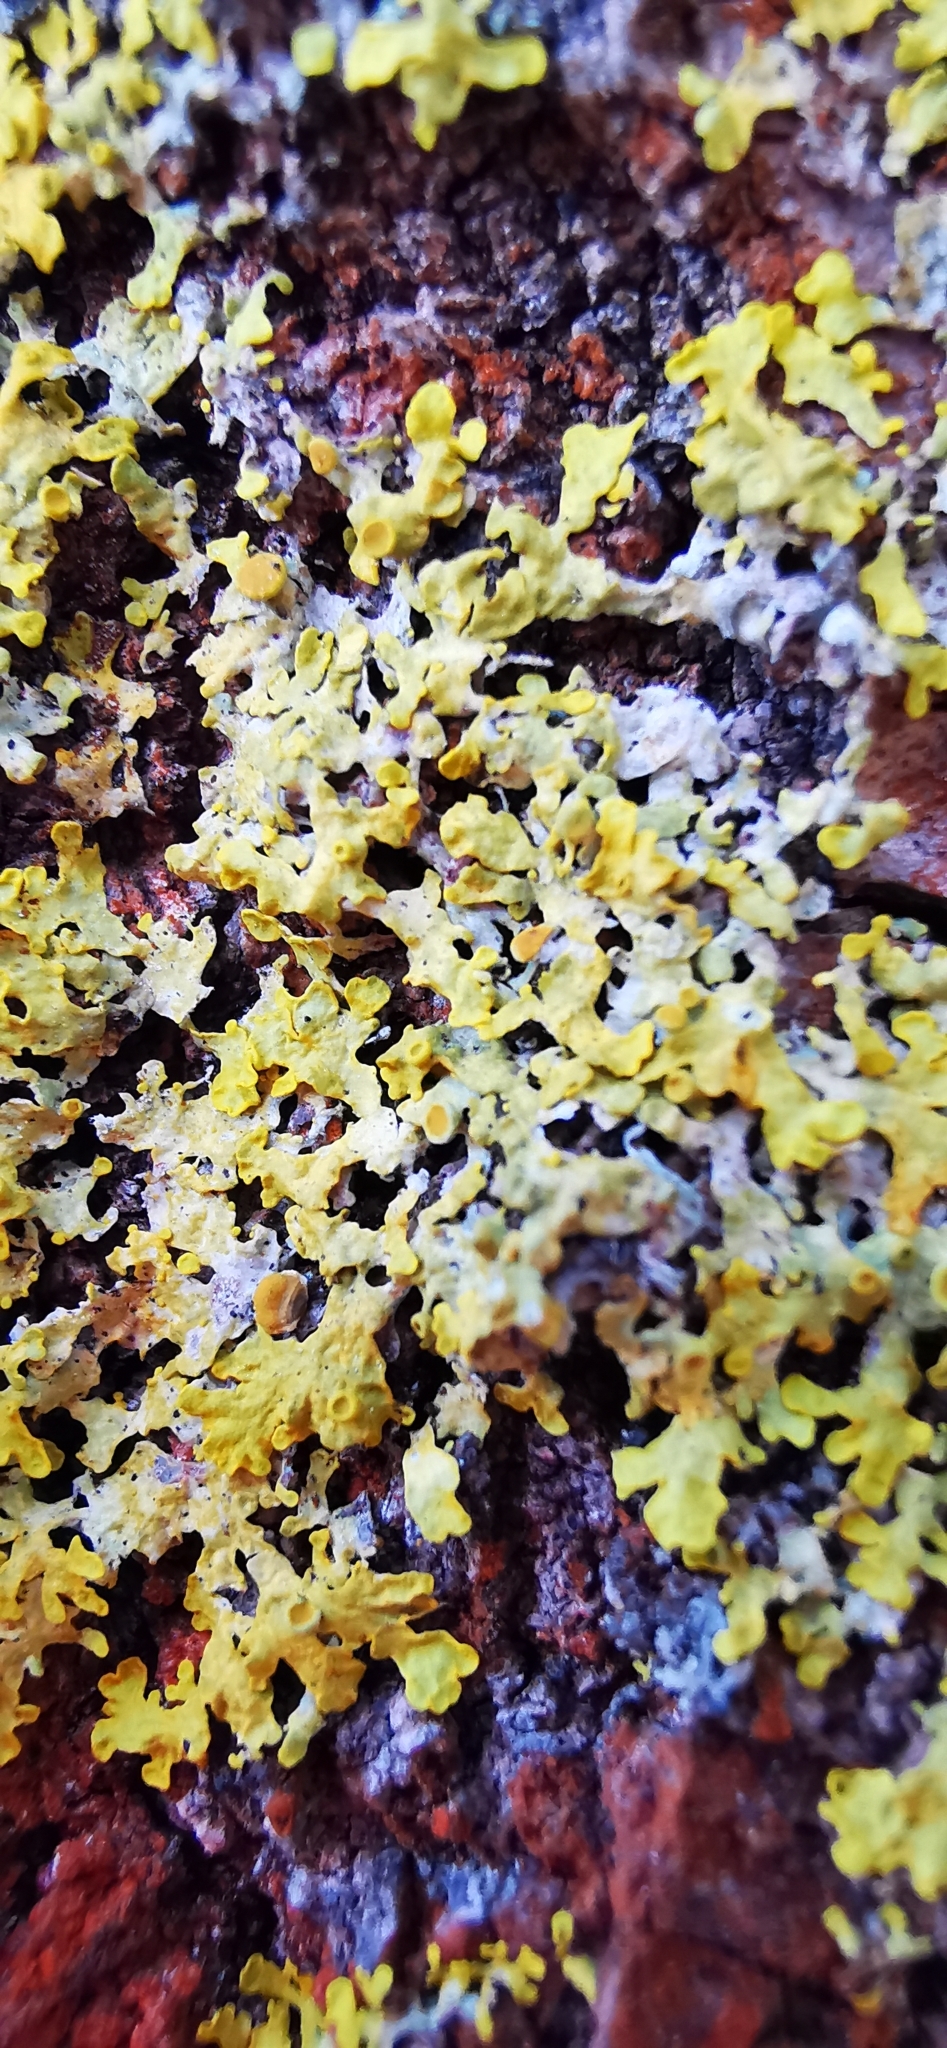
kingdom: Fungi
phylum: Ascomycota
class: Lecanoromycetes
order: Teloschistales
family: Teloschistaceae
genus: Xanthoria
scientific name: Xanthoria parietina
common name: Common orange lichen
